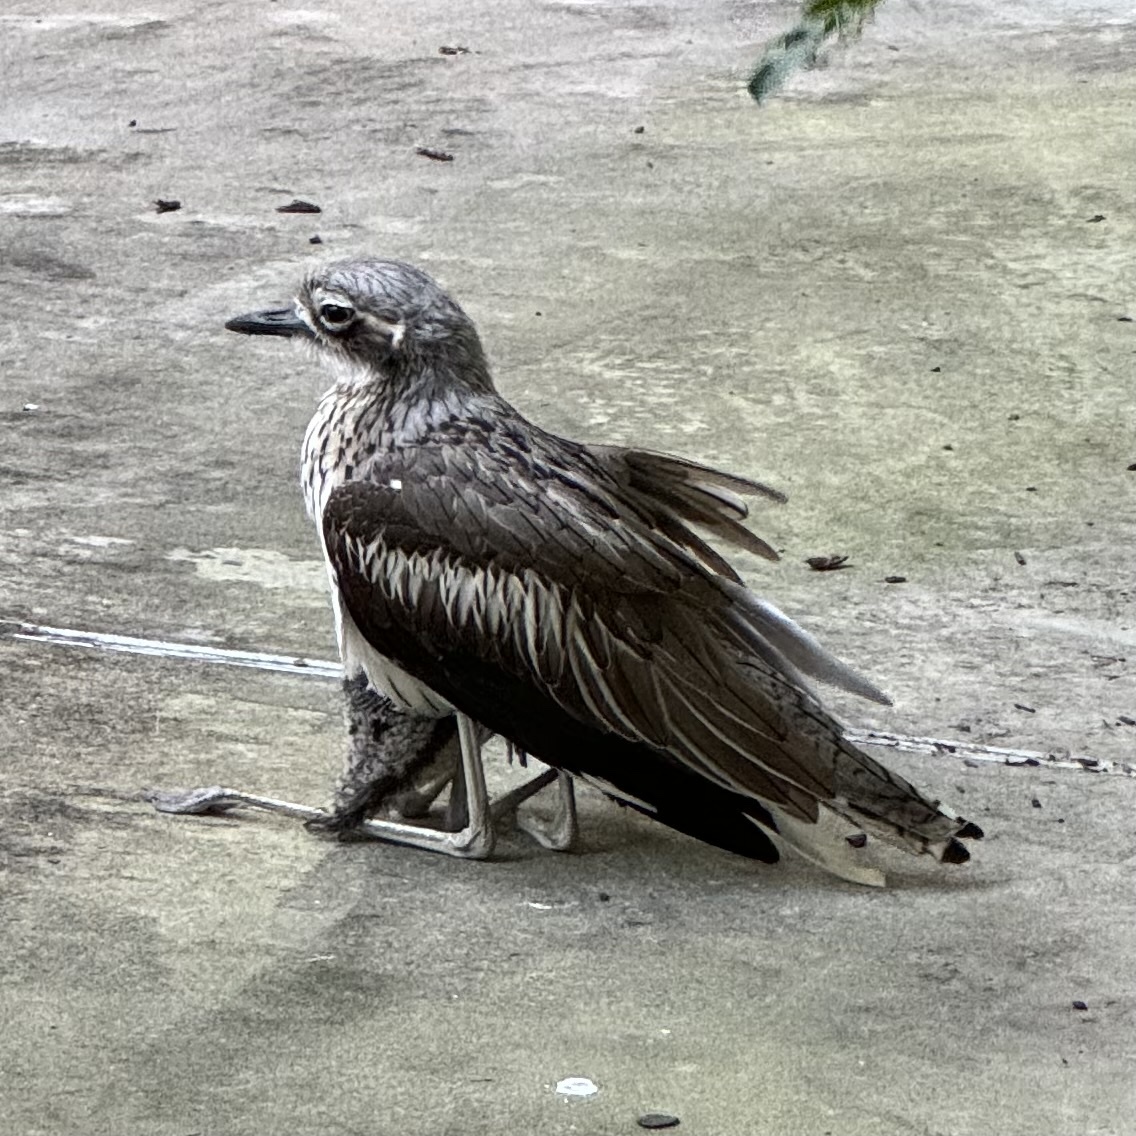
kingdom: Animalia
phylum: Chordata
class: Aves
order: Charadriiformes
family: Burhinidae
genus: Burhinus
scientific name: Burhinus grallarius
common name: Bush stone-curlew
